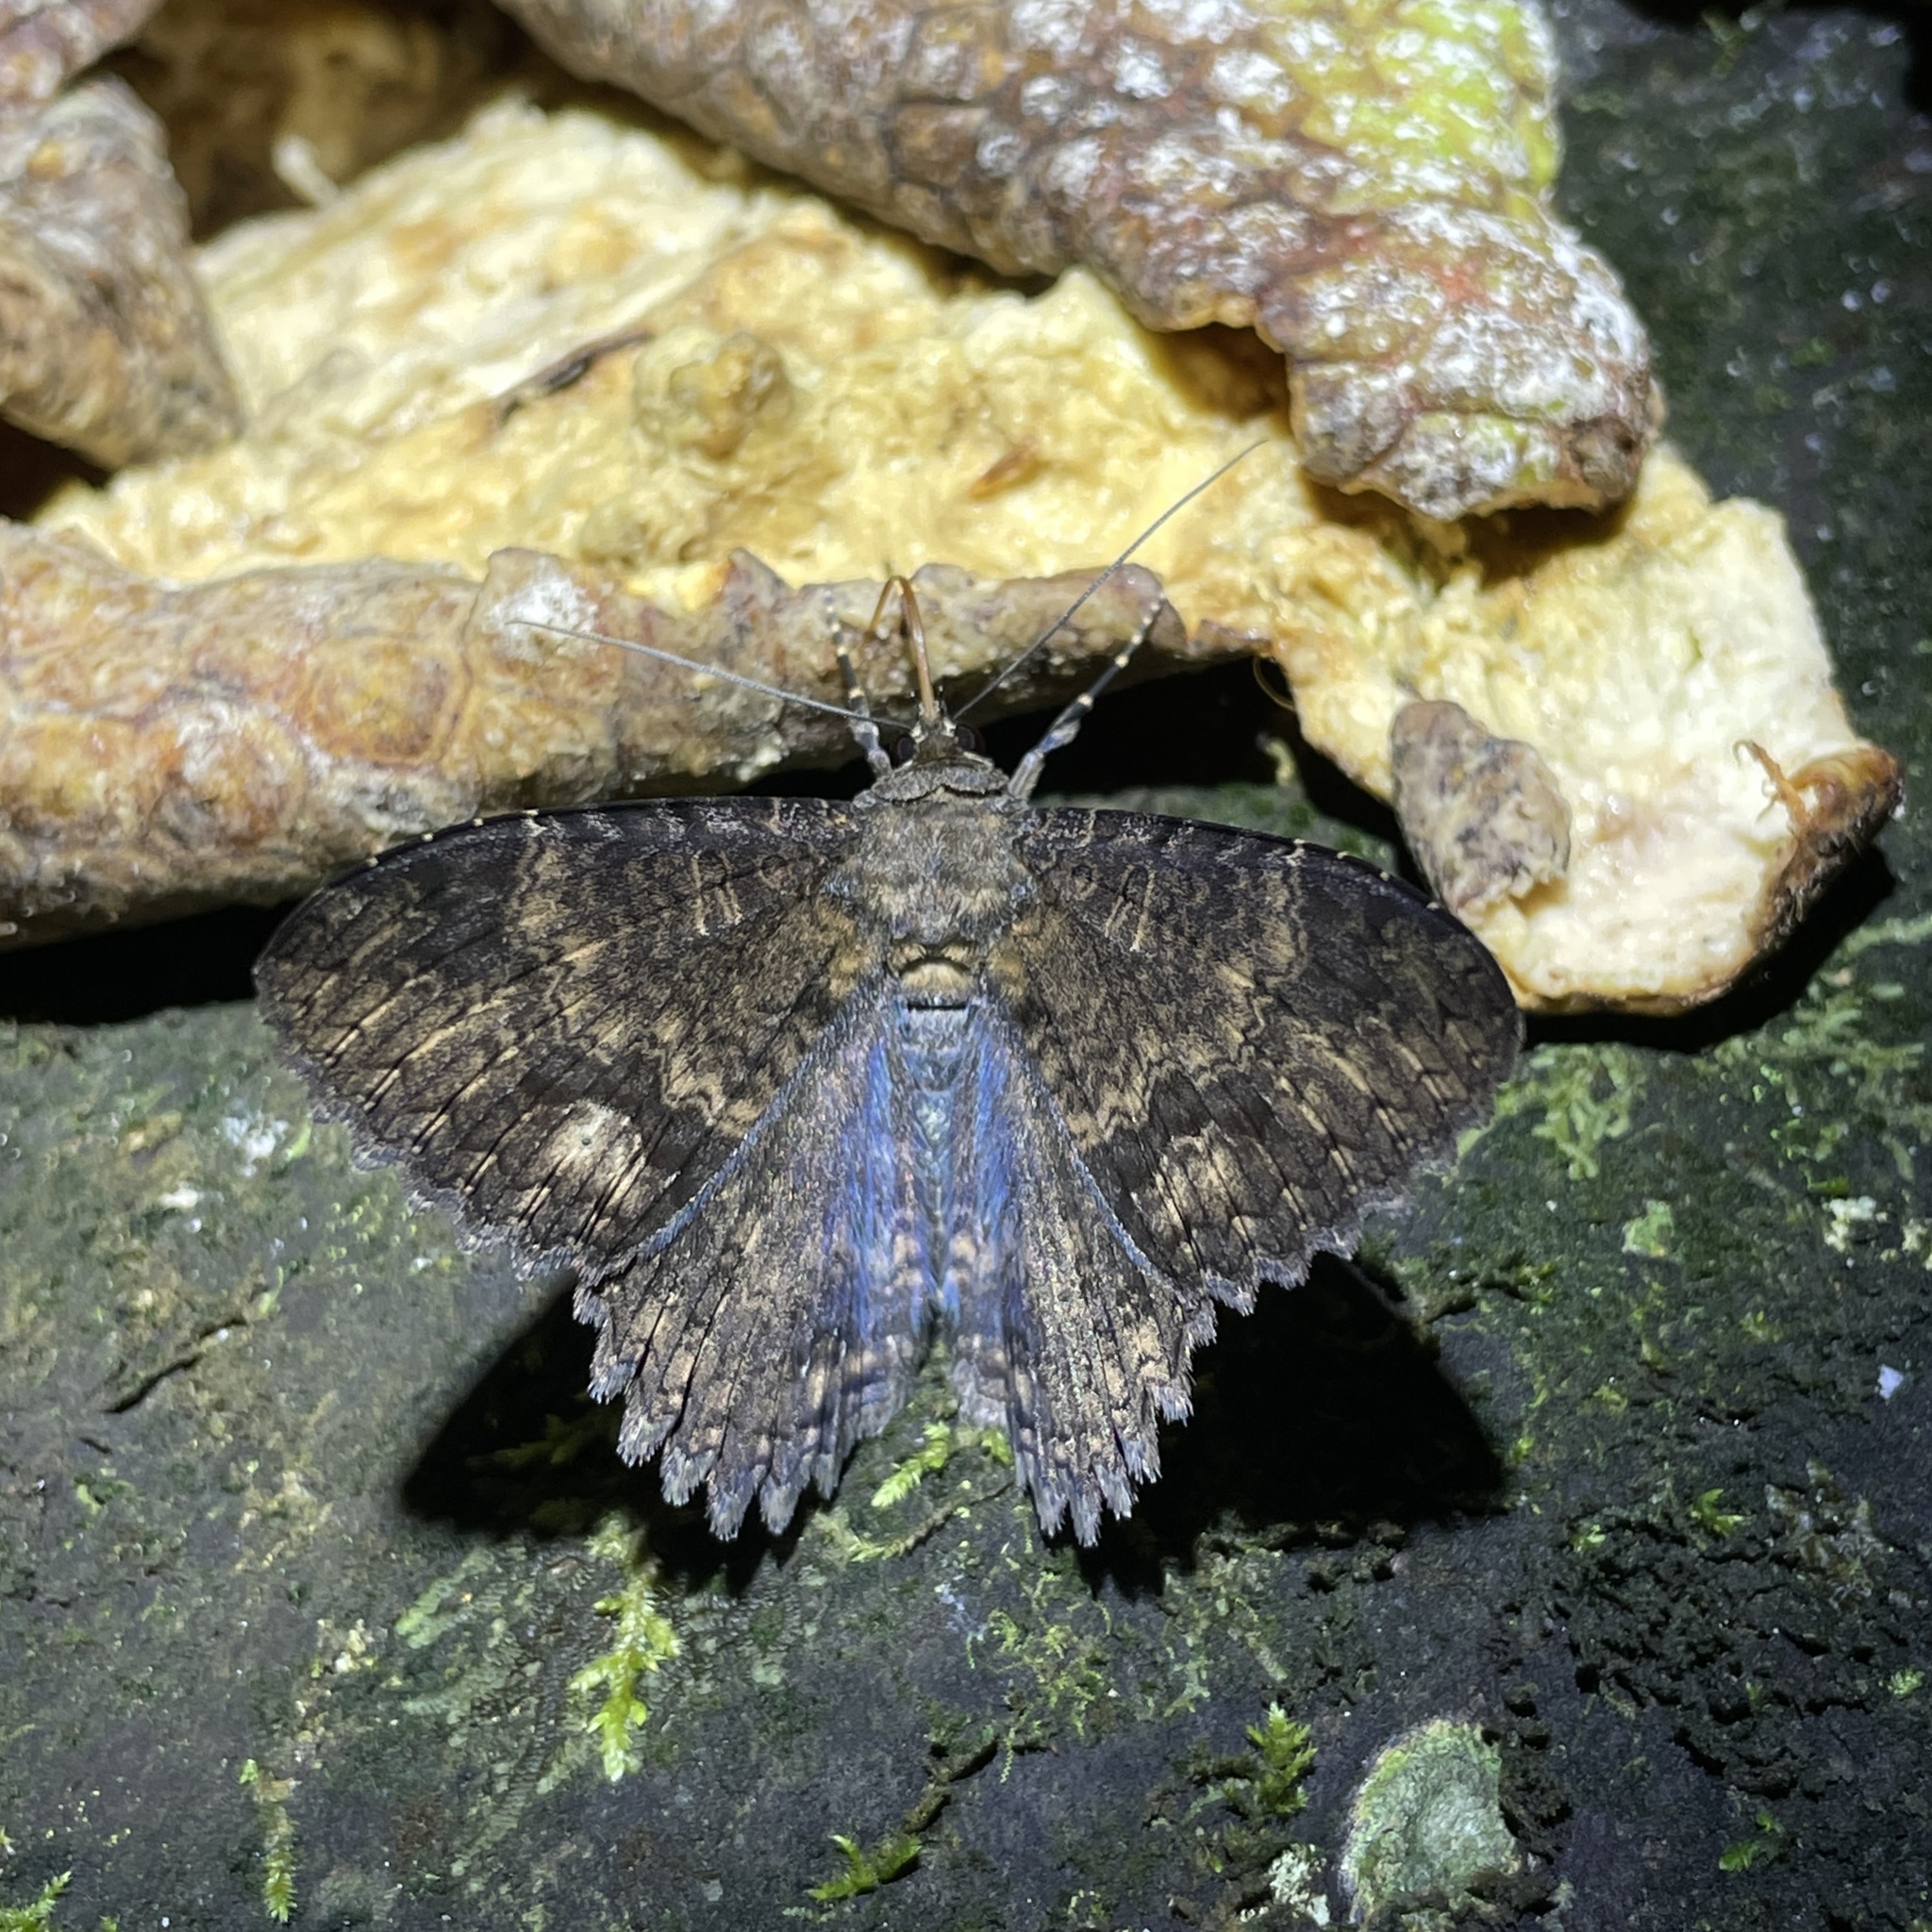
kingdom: Animalia
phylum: Arthropoda
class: Insecta
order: Lepidoptera
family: Erebidae
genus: Letis
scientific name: Letis doliaris
